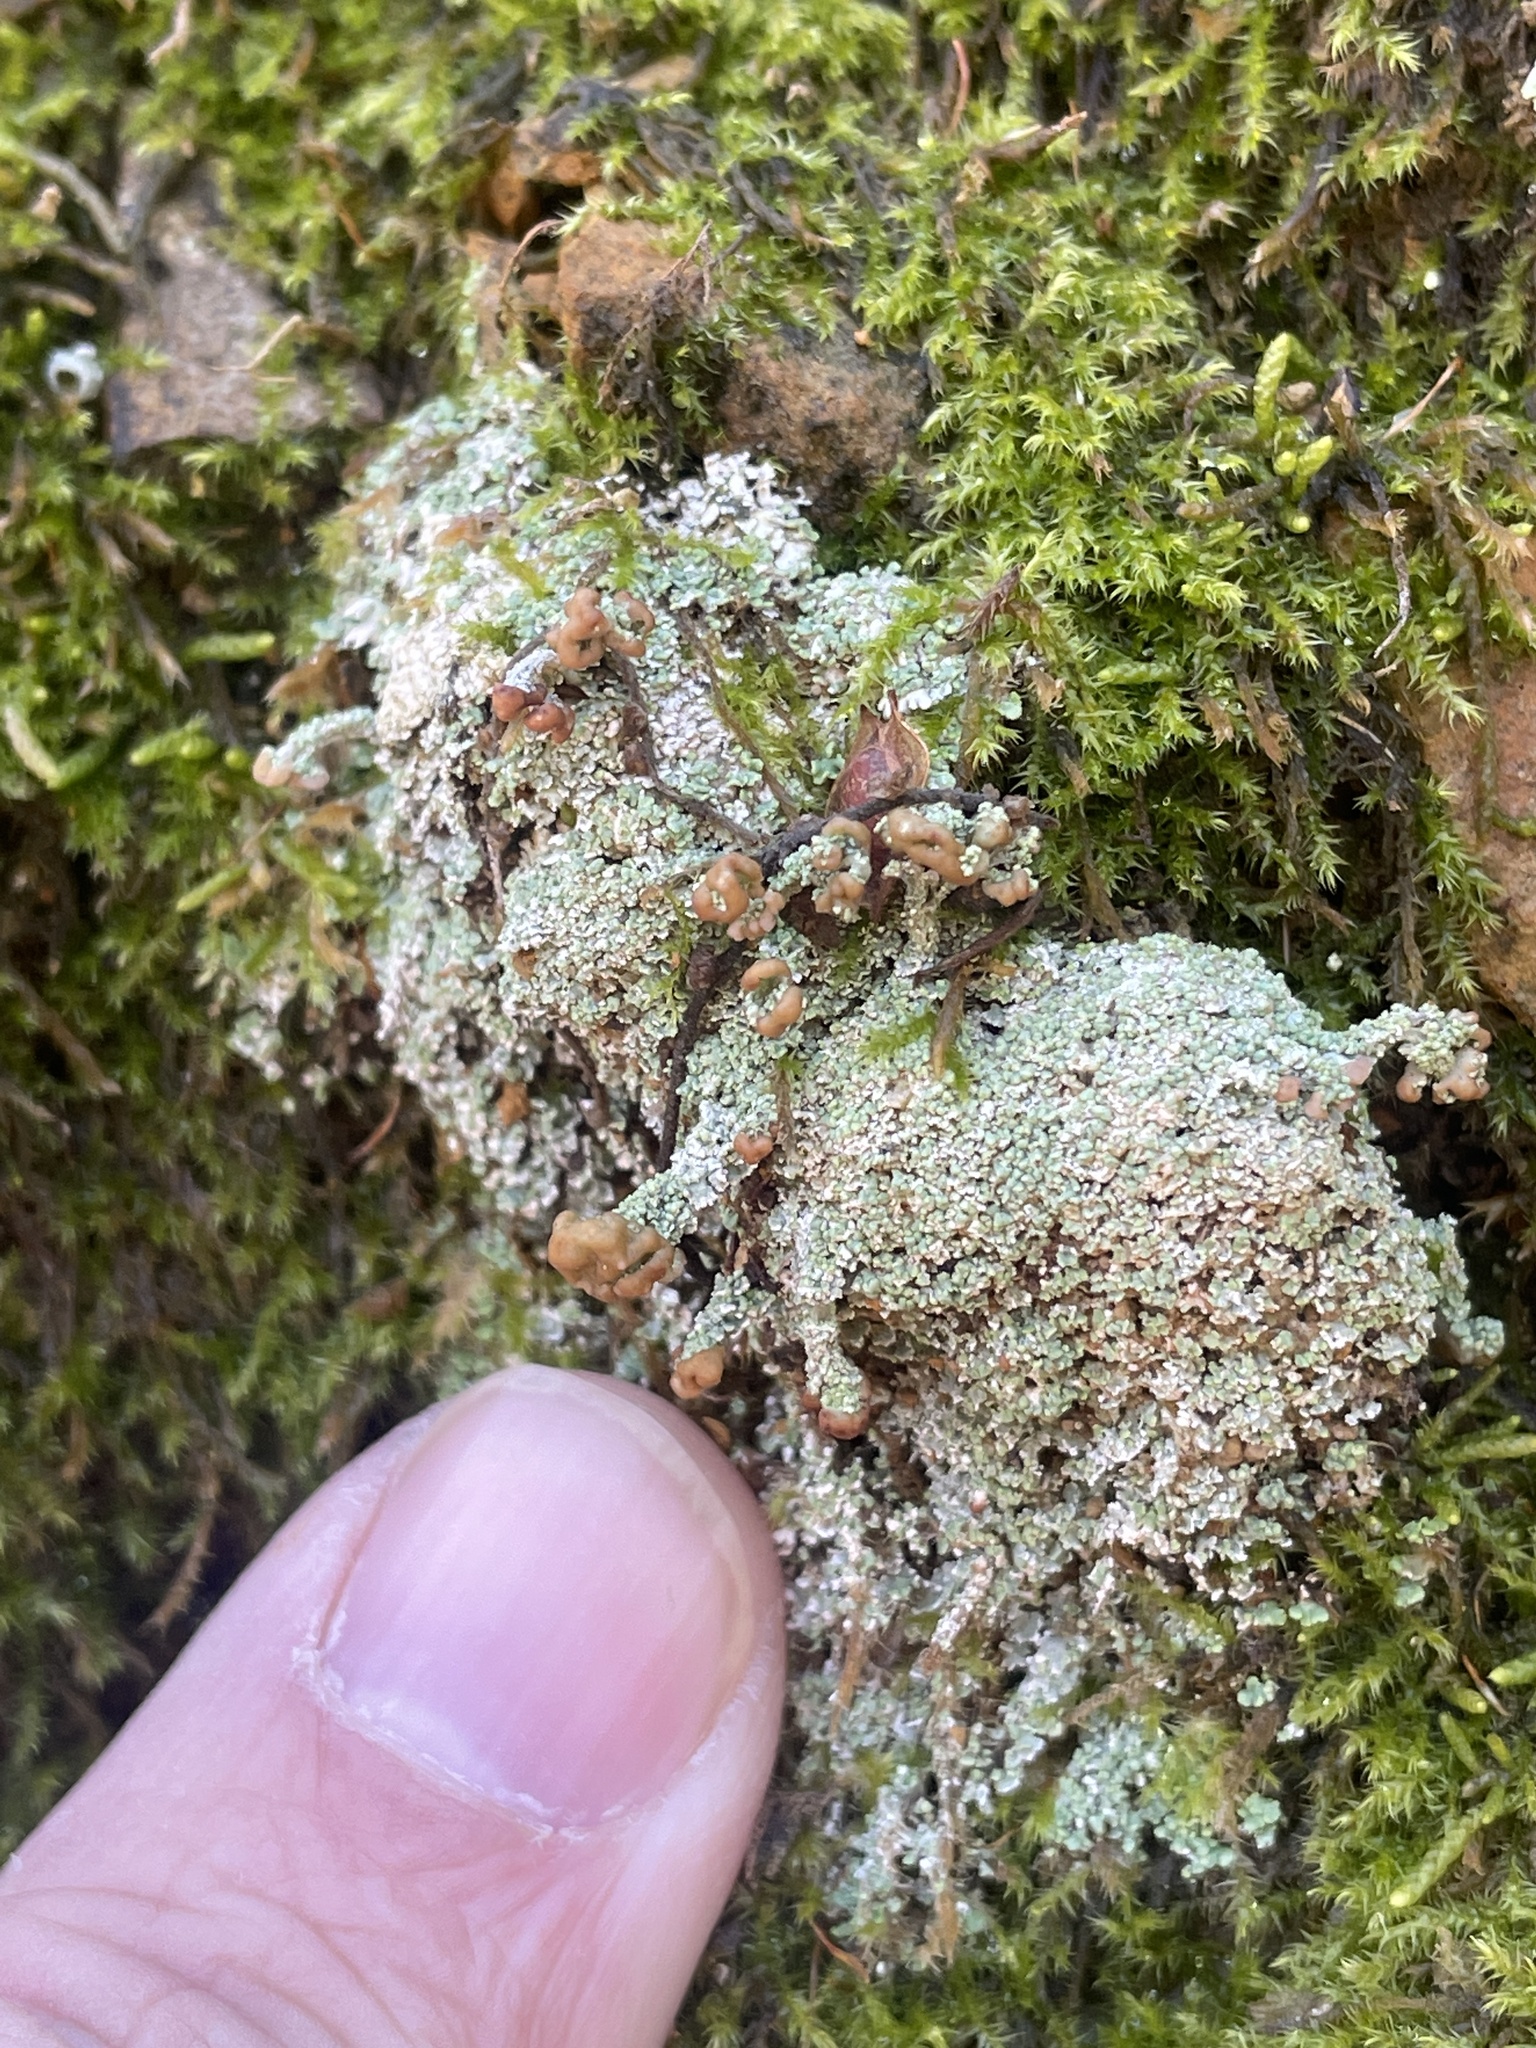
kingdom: Fungi
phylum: Ascomycota
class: Lecanoromycetes
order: Lecanorales
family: Cladoniaceae
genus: Cladonia
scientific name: Cladonia peziziformis
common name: Cup lichen
